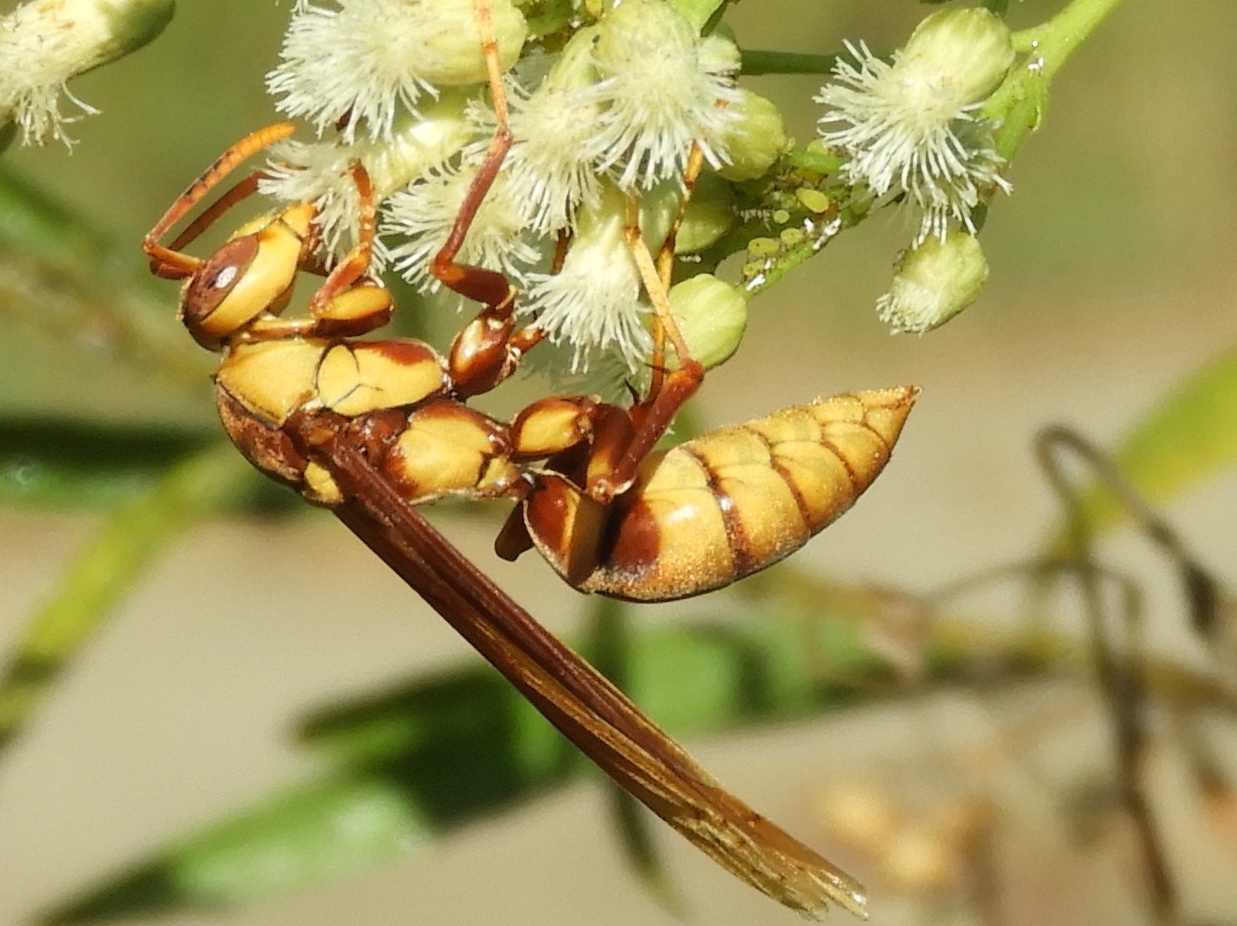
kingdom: Animalia
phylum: Arthropoda
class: Insecta
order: Hymenoptera
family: Eumenidae
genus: Polistes
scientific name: Polistes
